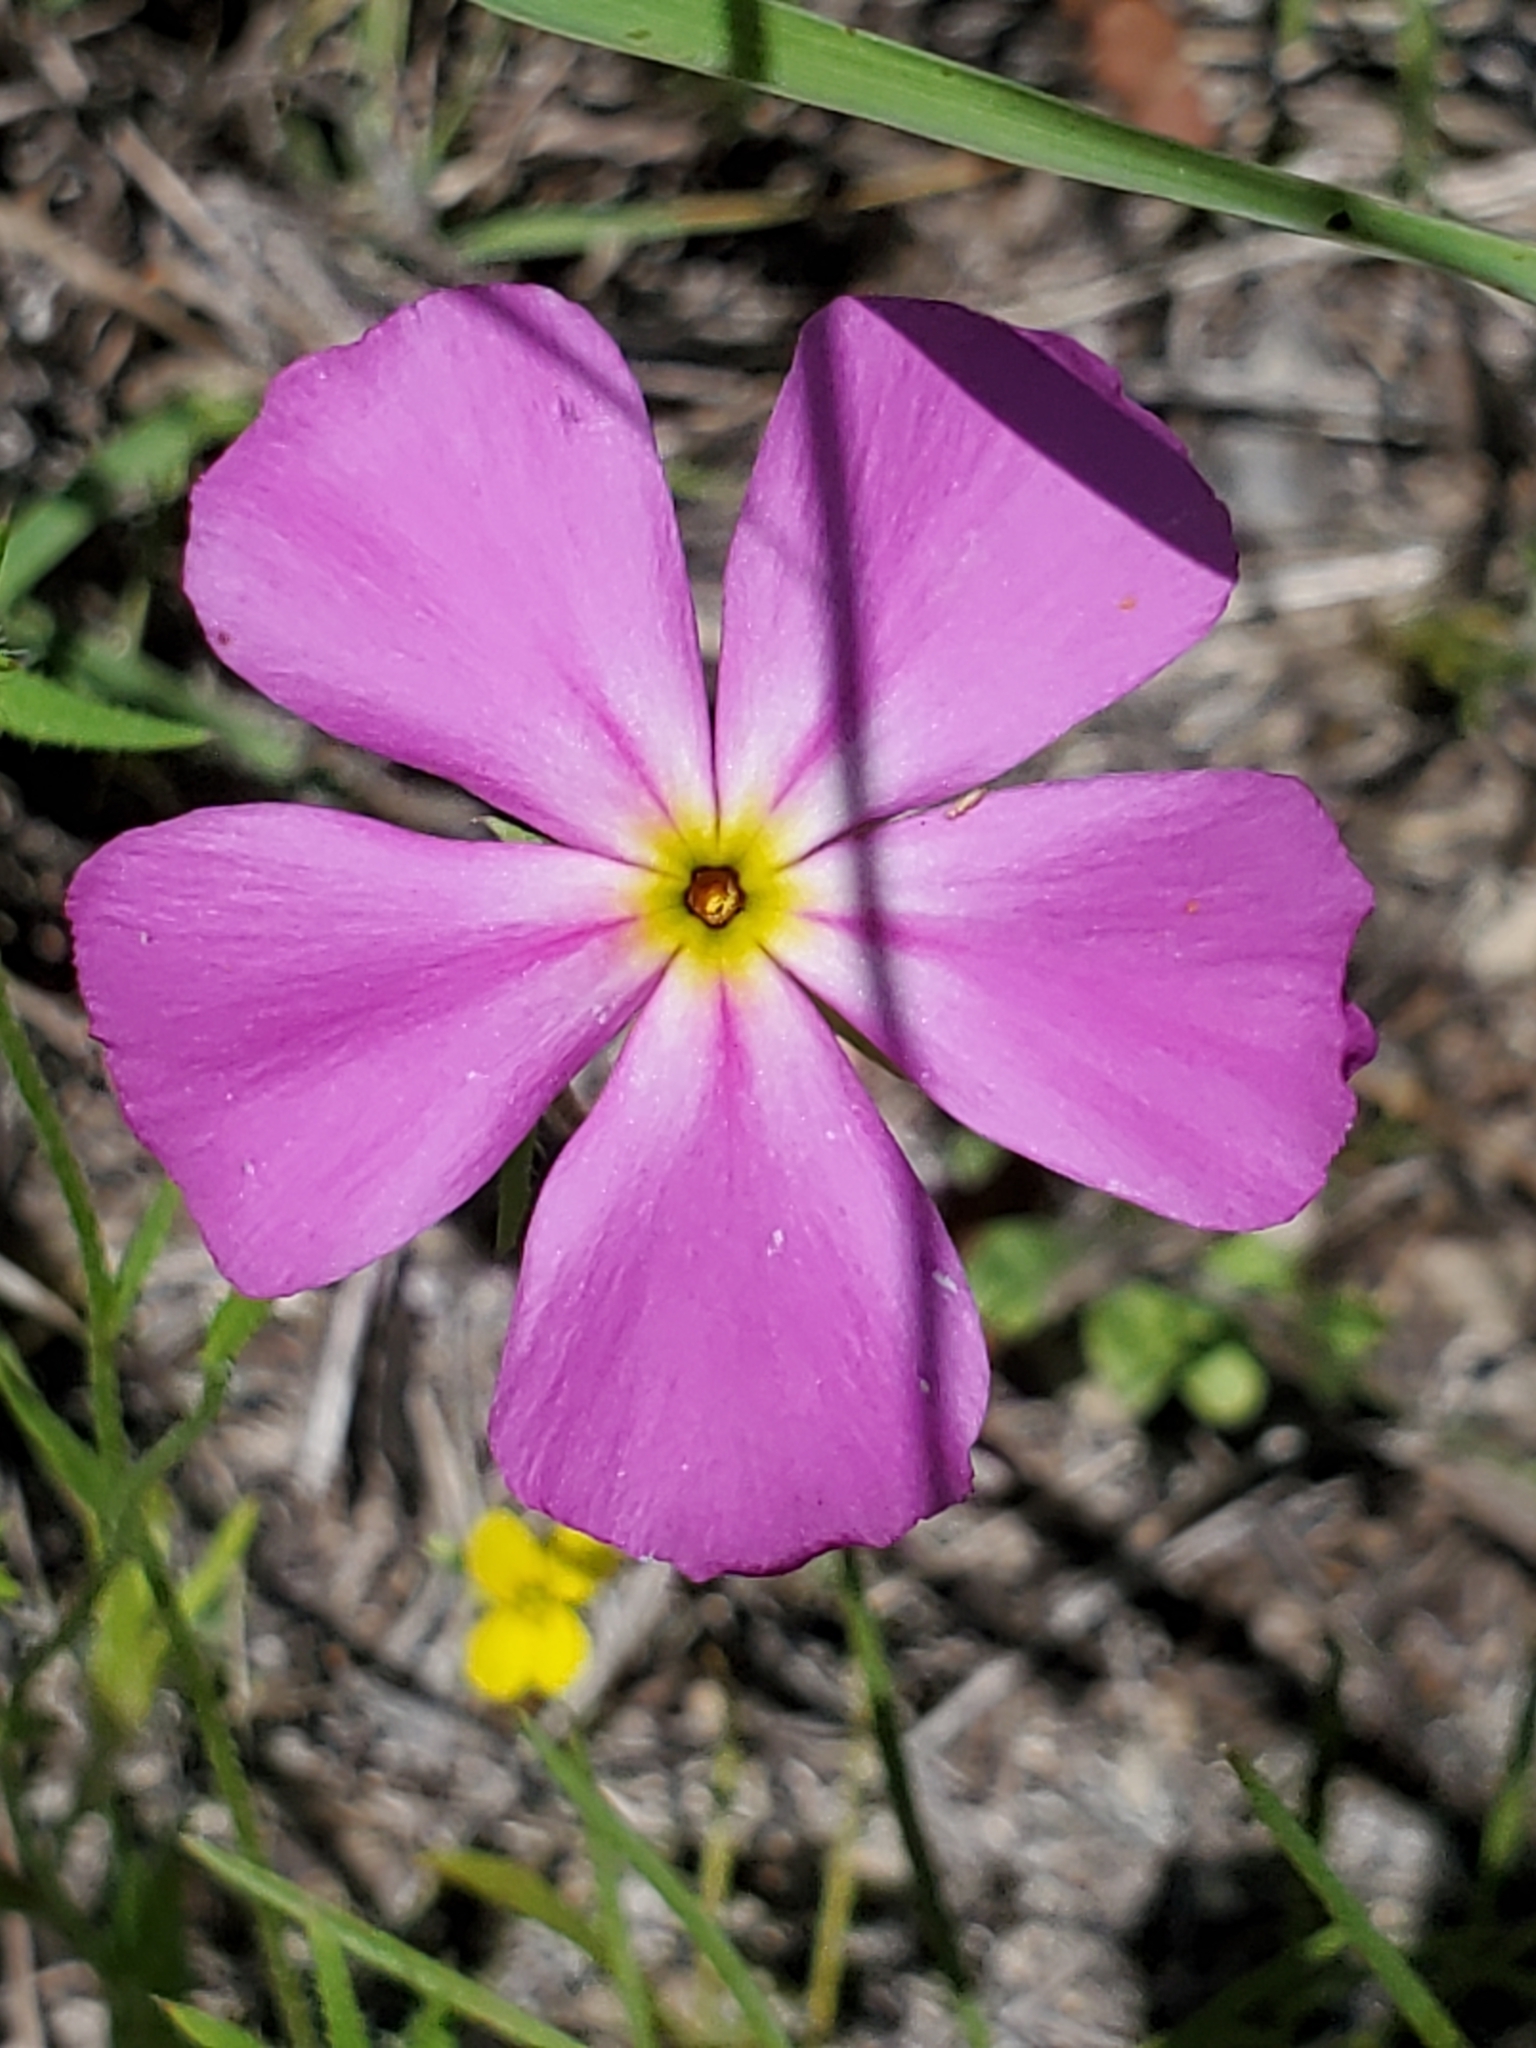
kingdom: Plantae
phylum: Tracheophyta
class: Magnoliopsida
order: Ericales
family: Polemoniaceae
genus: Phlox
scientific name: Phlox roemeriana
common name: Roemer's phlox
